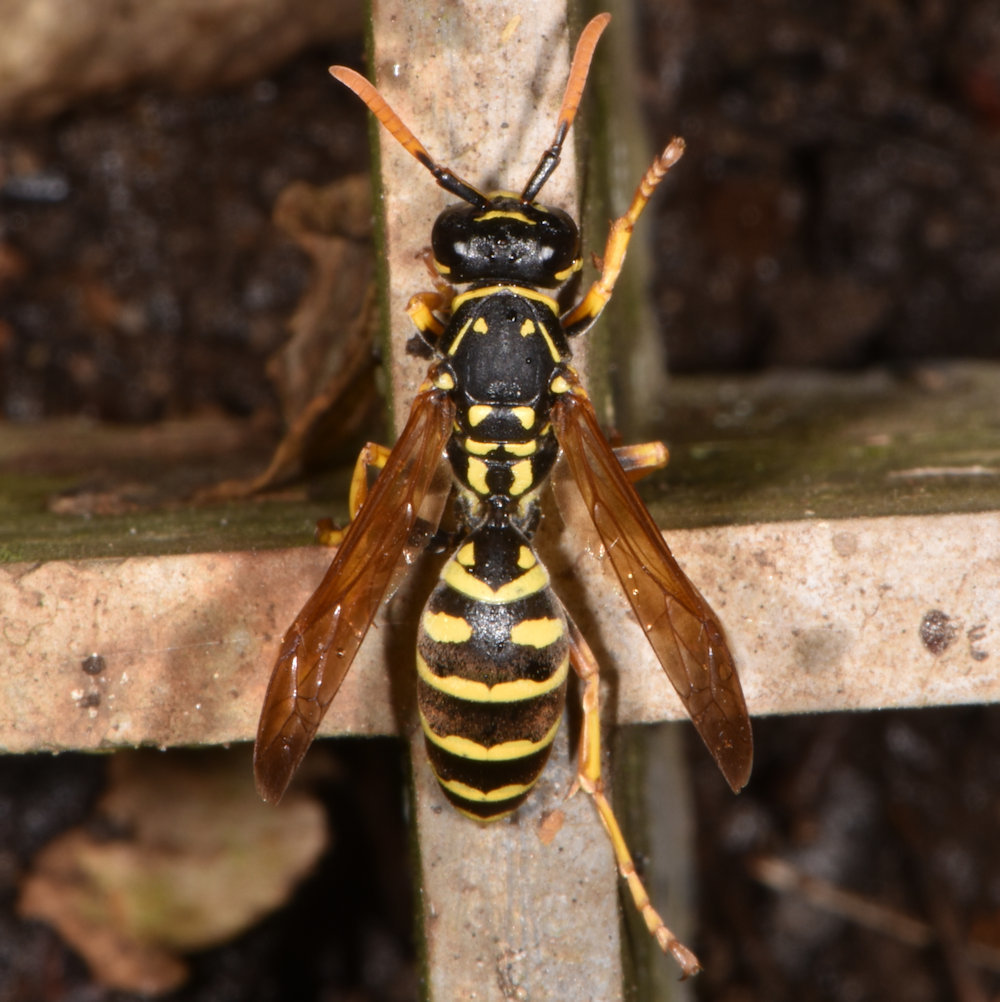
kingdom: Animalia
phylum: Arthropoda
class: Insecta
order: Hymenoptera
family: Eumenidae
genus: Polistes
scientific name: Polistes dominula
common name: Paper wasp
